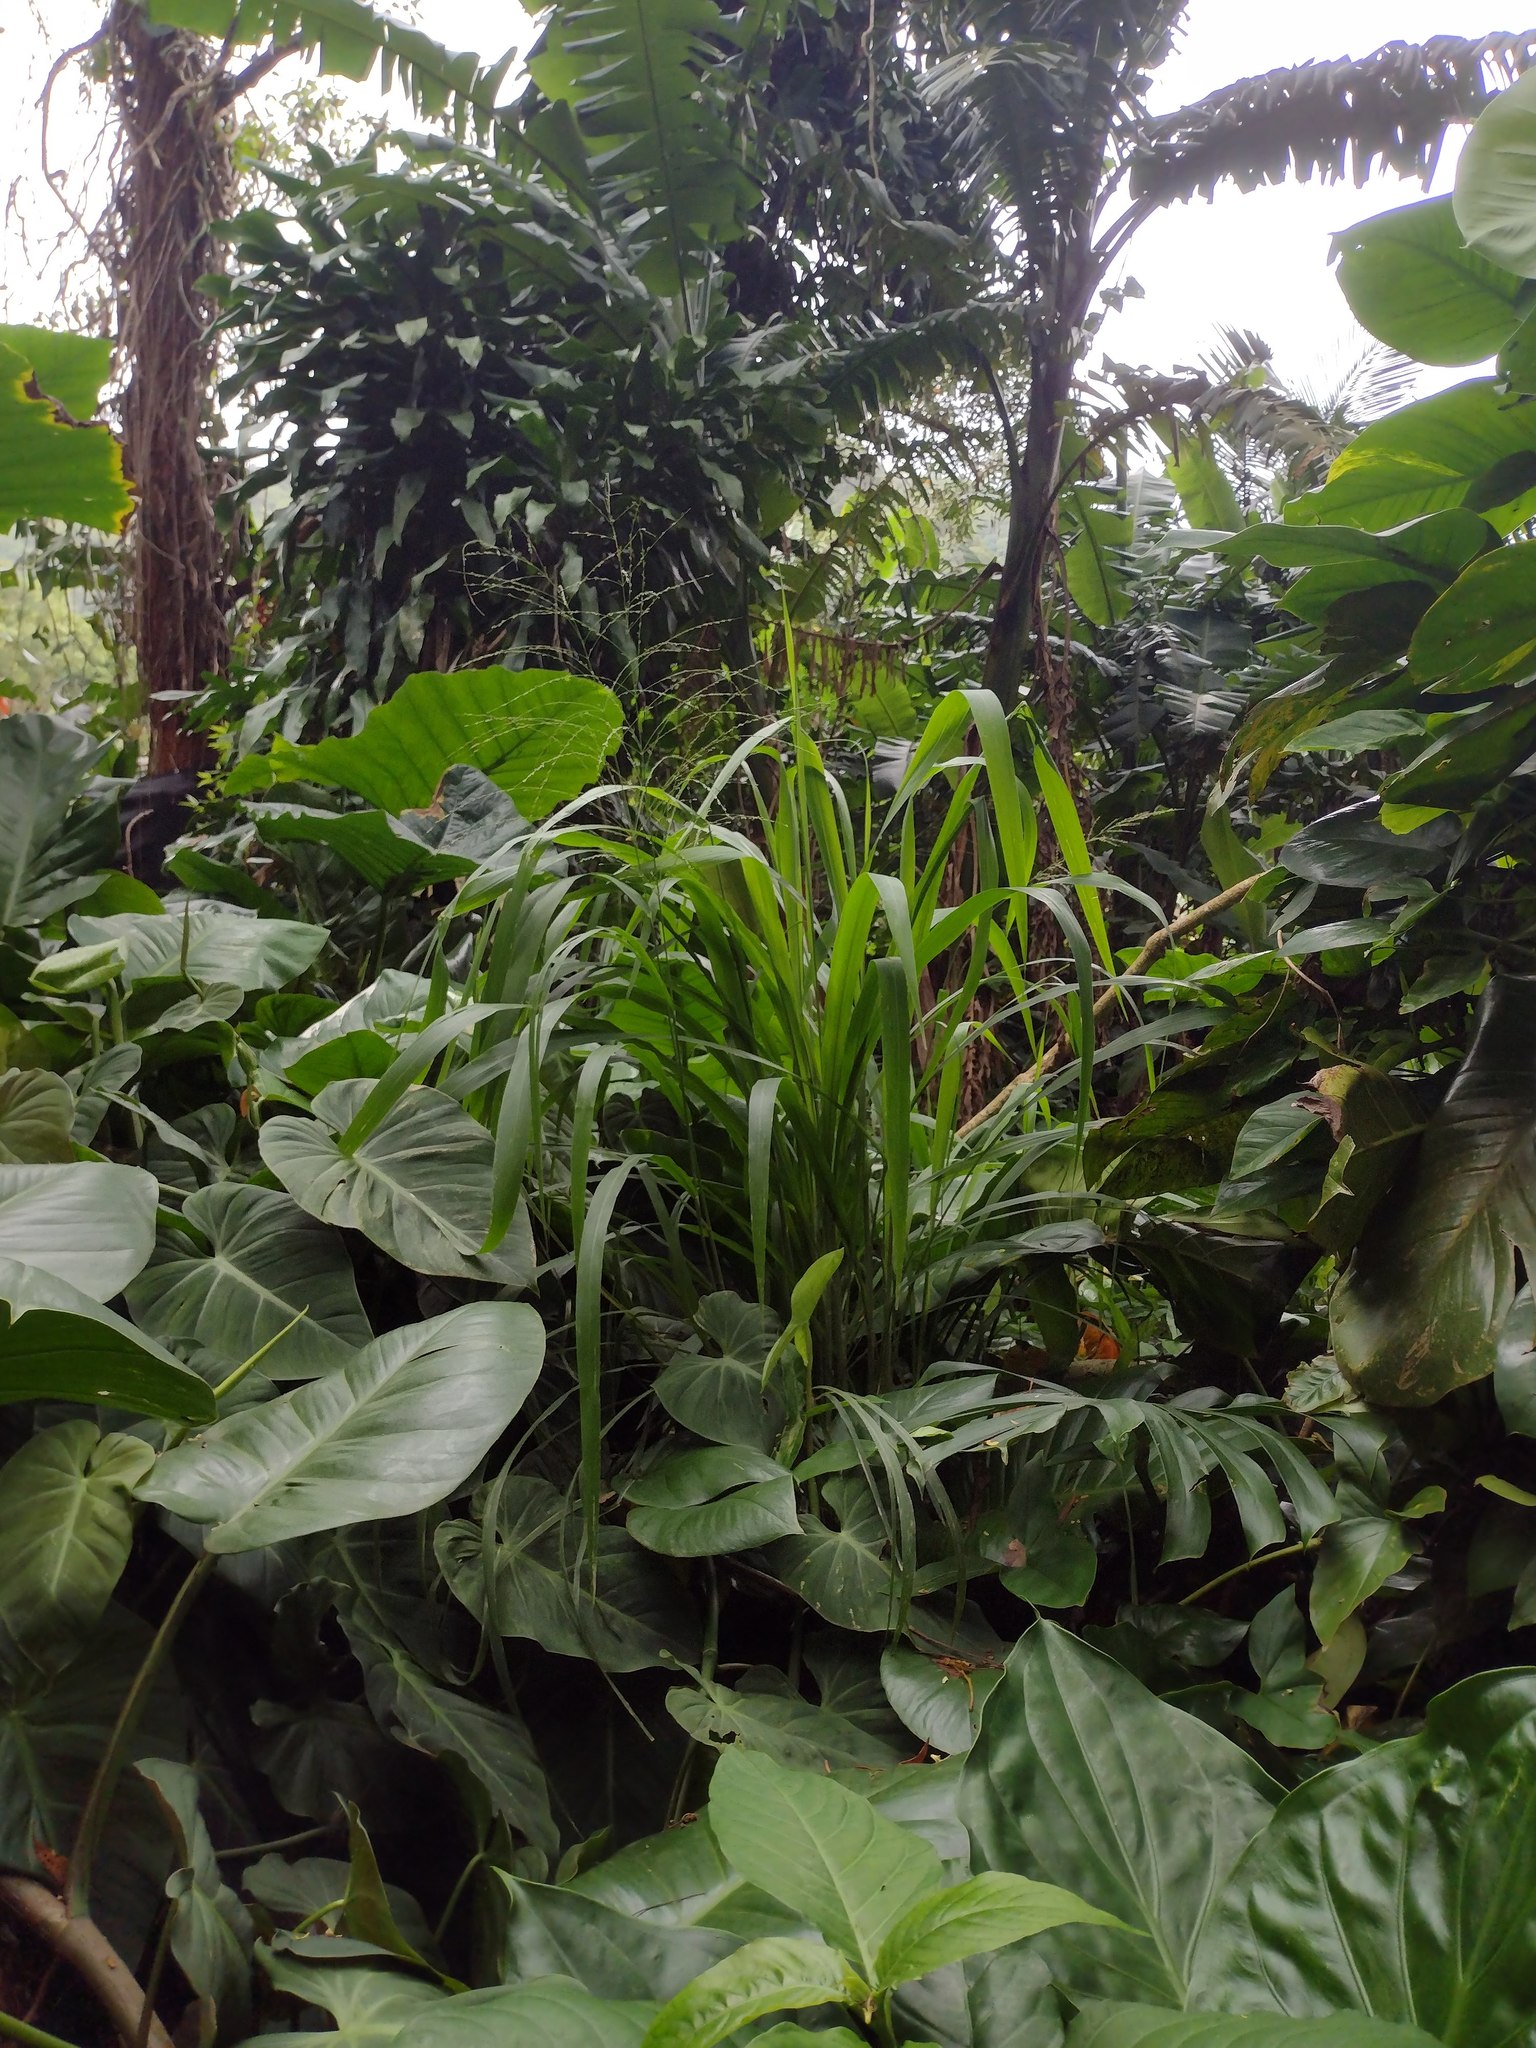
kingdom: Plantae
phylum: Tracheophyta
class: Liliopsida
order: Poales
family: Poaceae
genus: Megathyrsus
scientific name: Megathyrsus maximus
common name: Guineagrass
